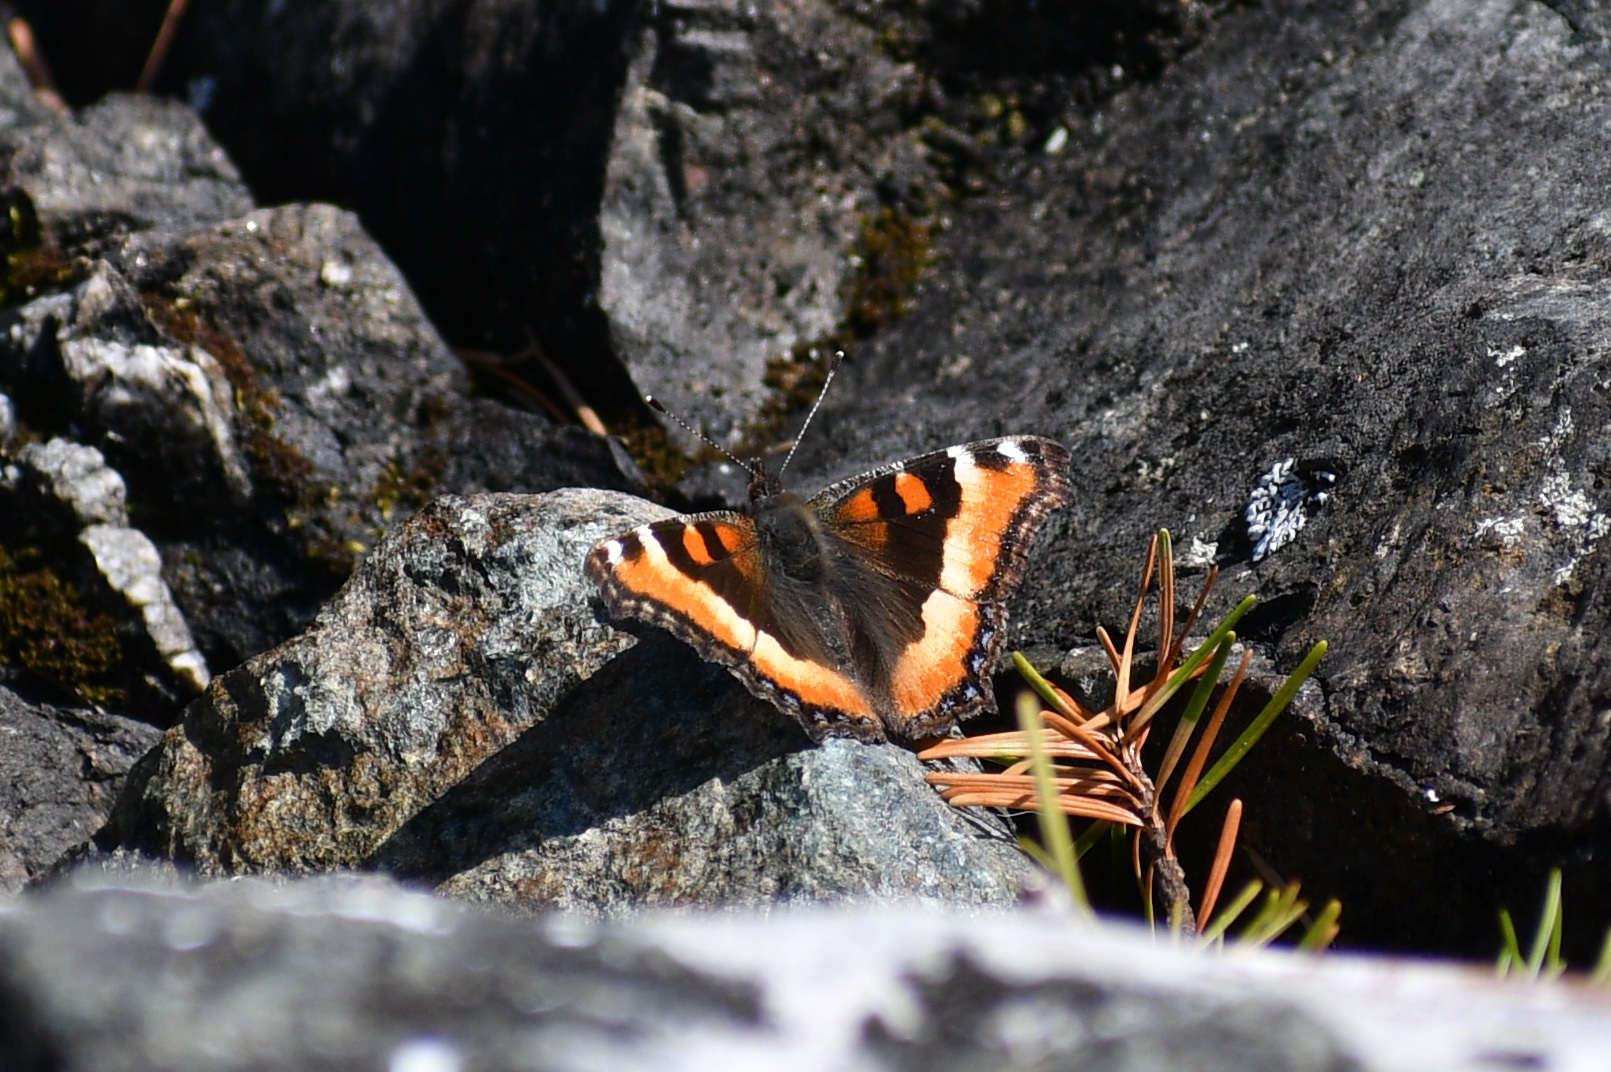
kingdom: Animalia
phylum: Arthropoda
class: Insecta
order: Lepidoptera
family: Nymphalidae
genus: Aglais
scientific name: Aglais milberti
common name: Milbert's tortoiseshell
